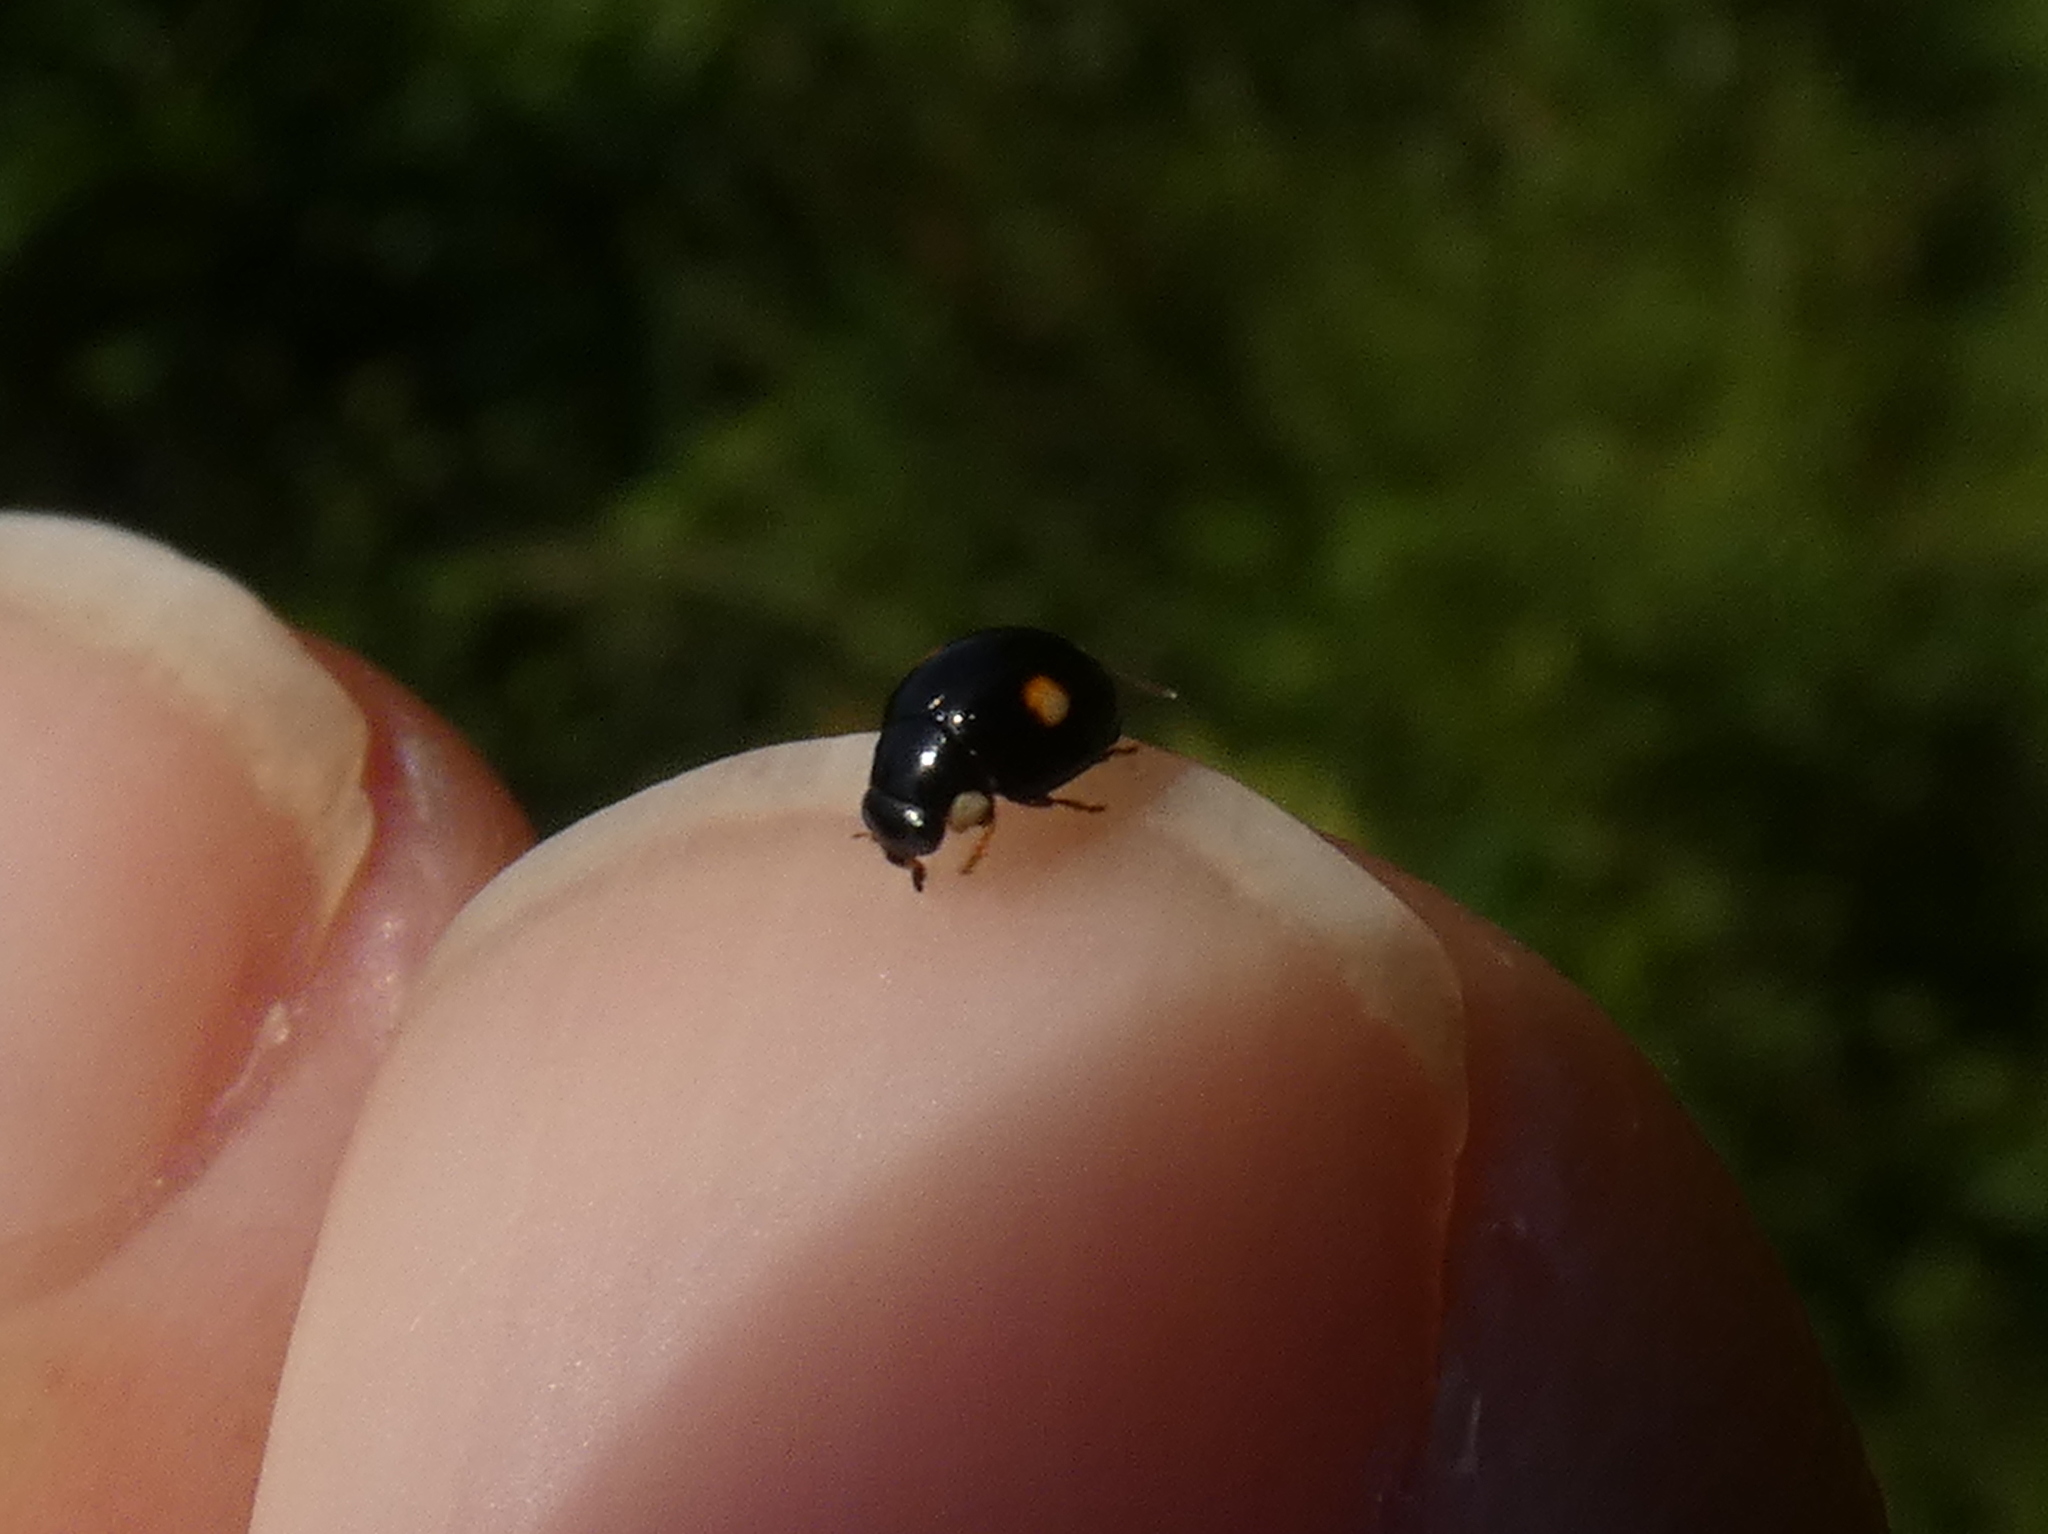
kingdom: Animalia
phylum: Arthropoda
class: Insecta
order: Coleoptera
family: Coccinellidae
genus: Hyperaspis
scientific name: Hyperaspis proba
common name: Esteemed sigil lady beetle
